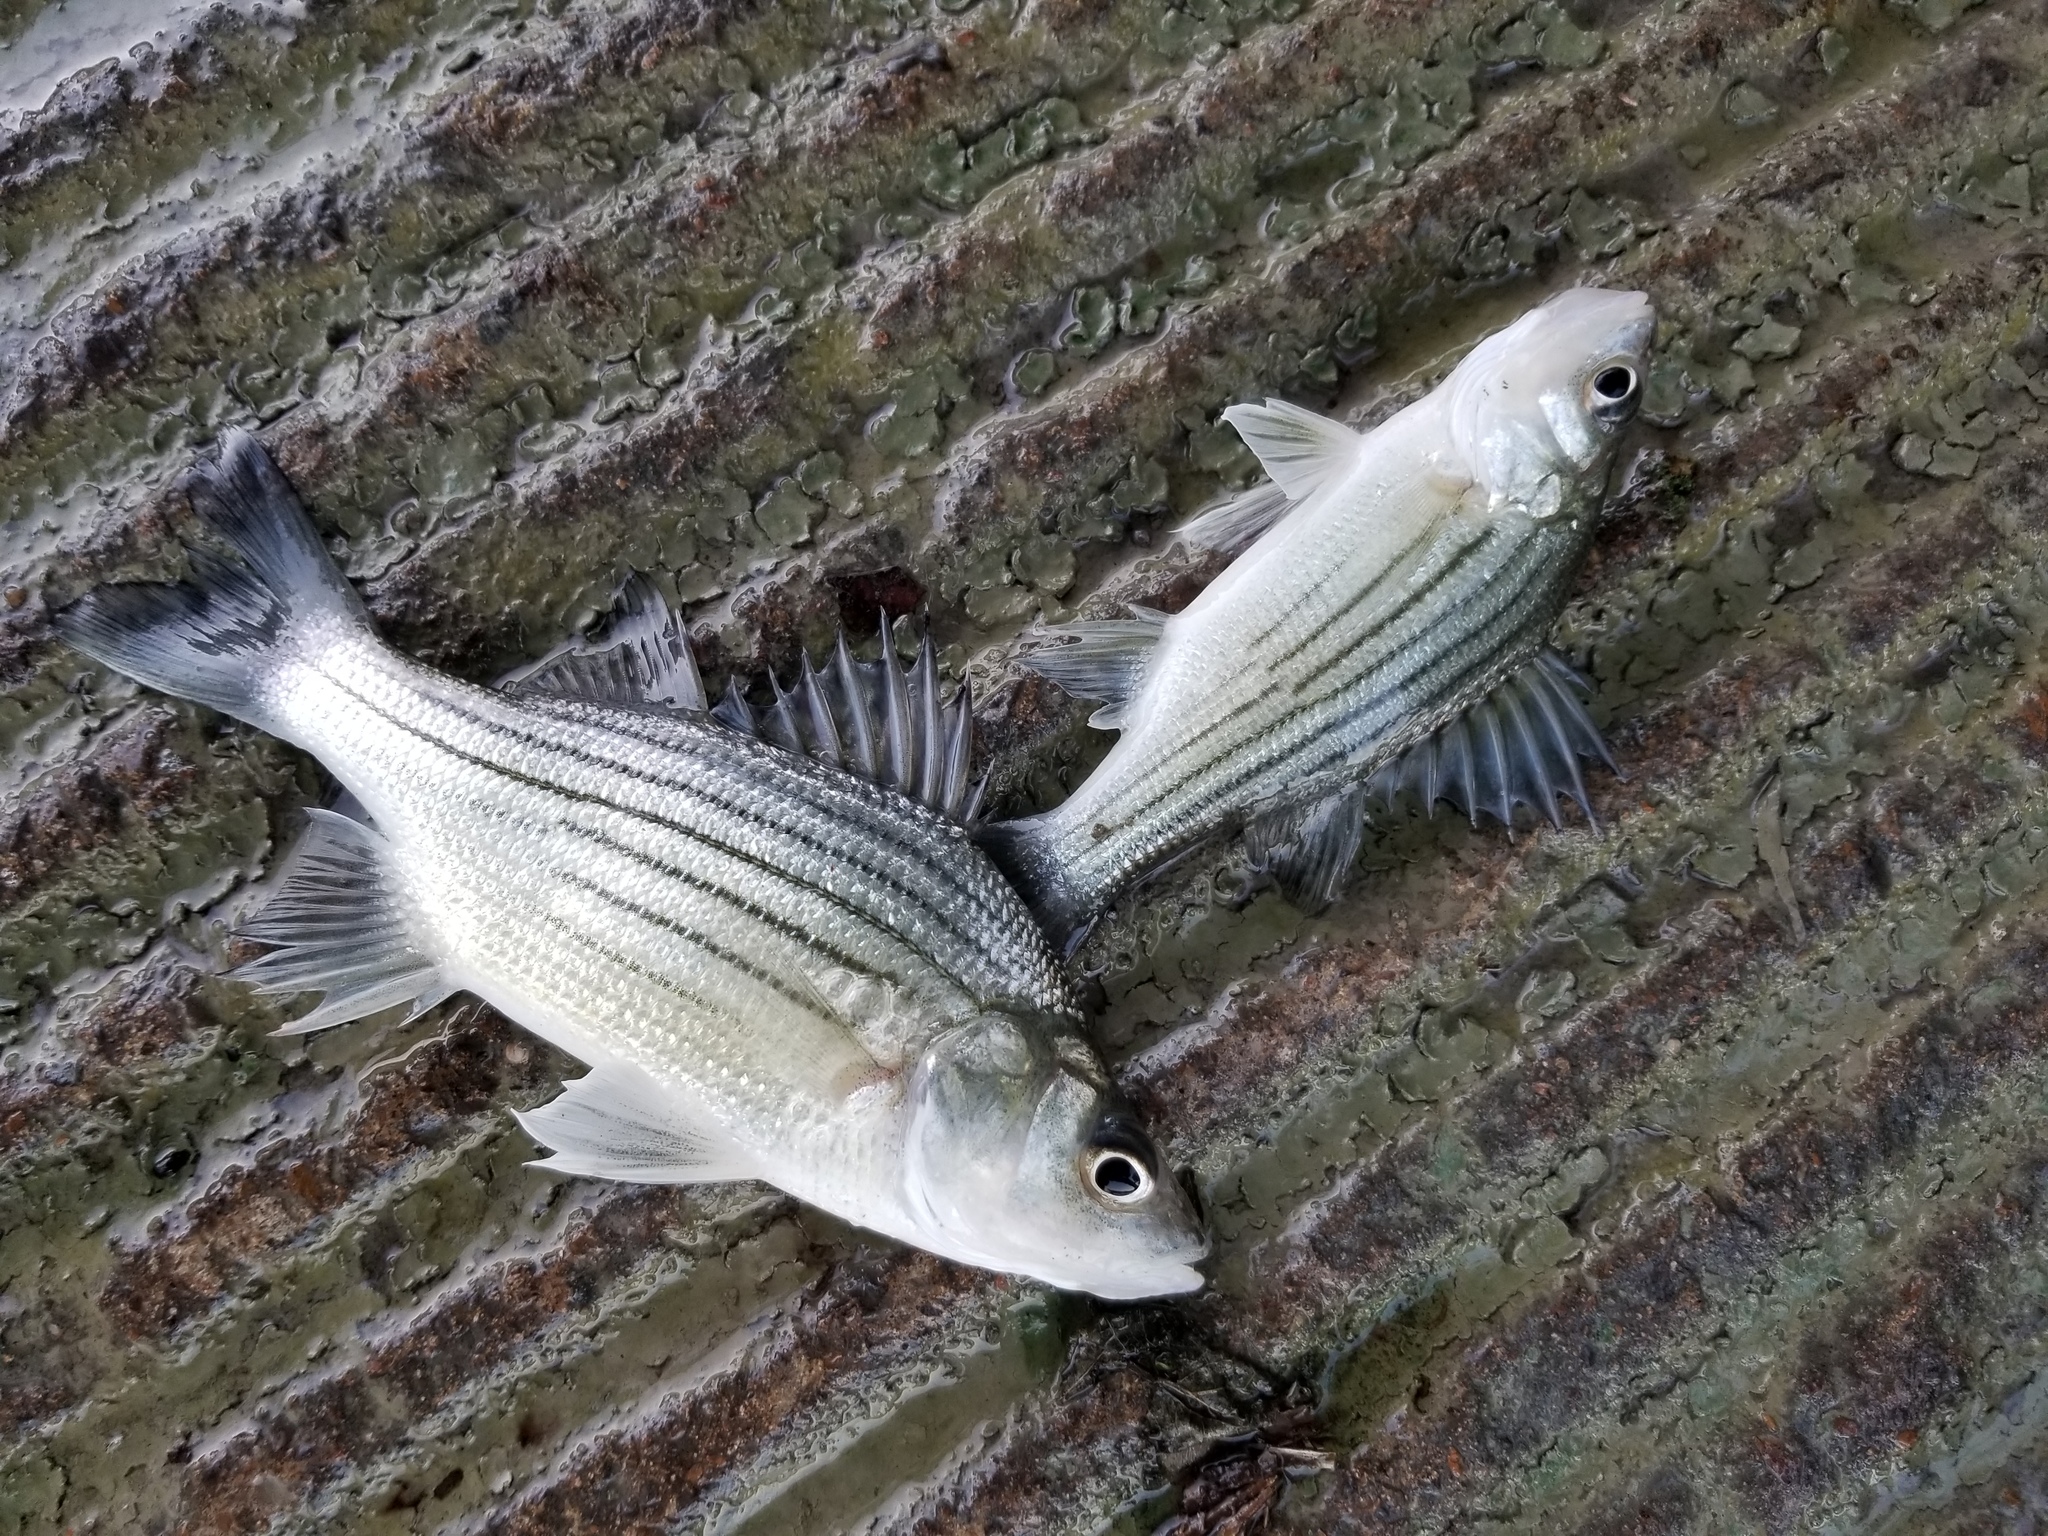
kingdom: Animalia
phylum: Chordata
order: Perciformes
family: Moronidae
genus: Morone
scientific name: Morone mississippiensis
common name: Yellow bass
